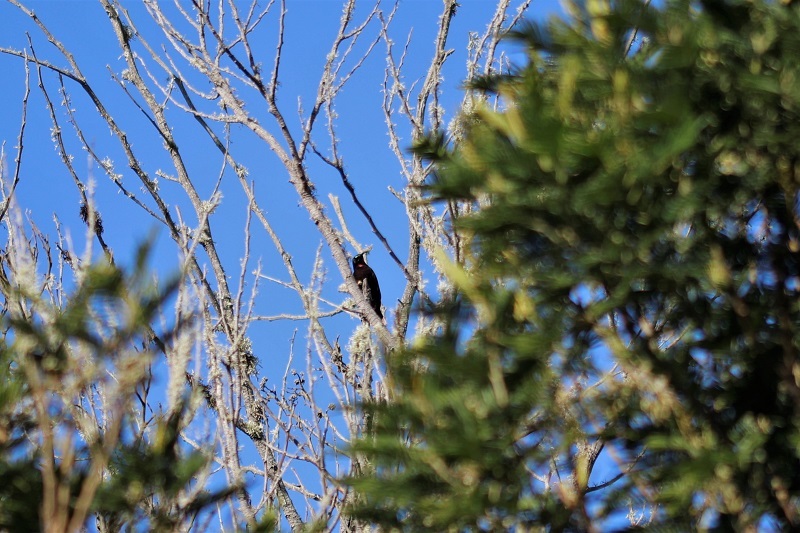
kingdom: Animalia
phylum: Chordata
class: Aves
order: Passeriformes
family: Nectariniidae
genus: Chalcomitra
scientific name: Chalcomitra amethystina
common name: Amethyst sunbird
